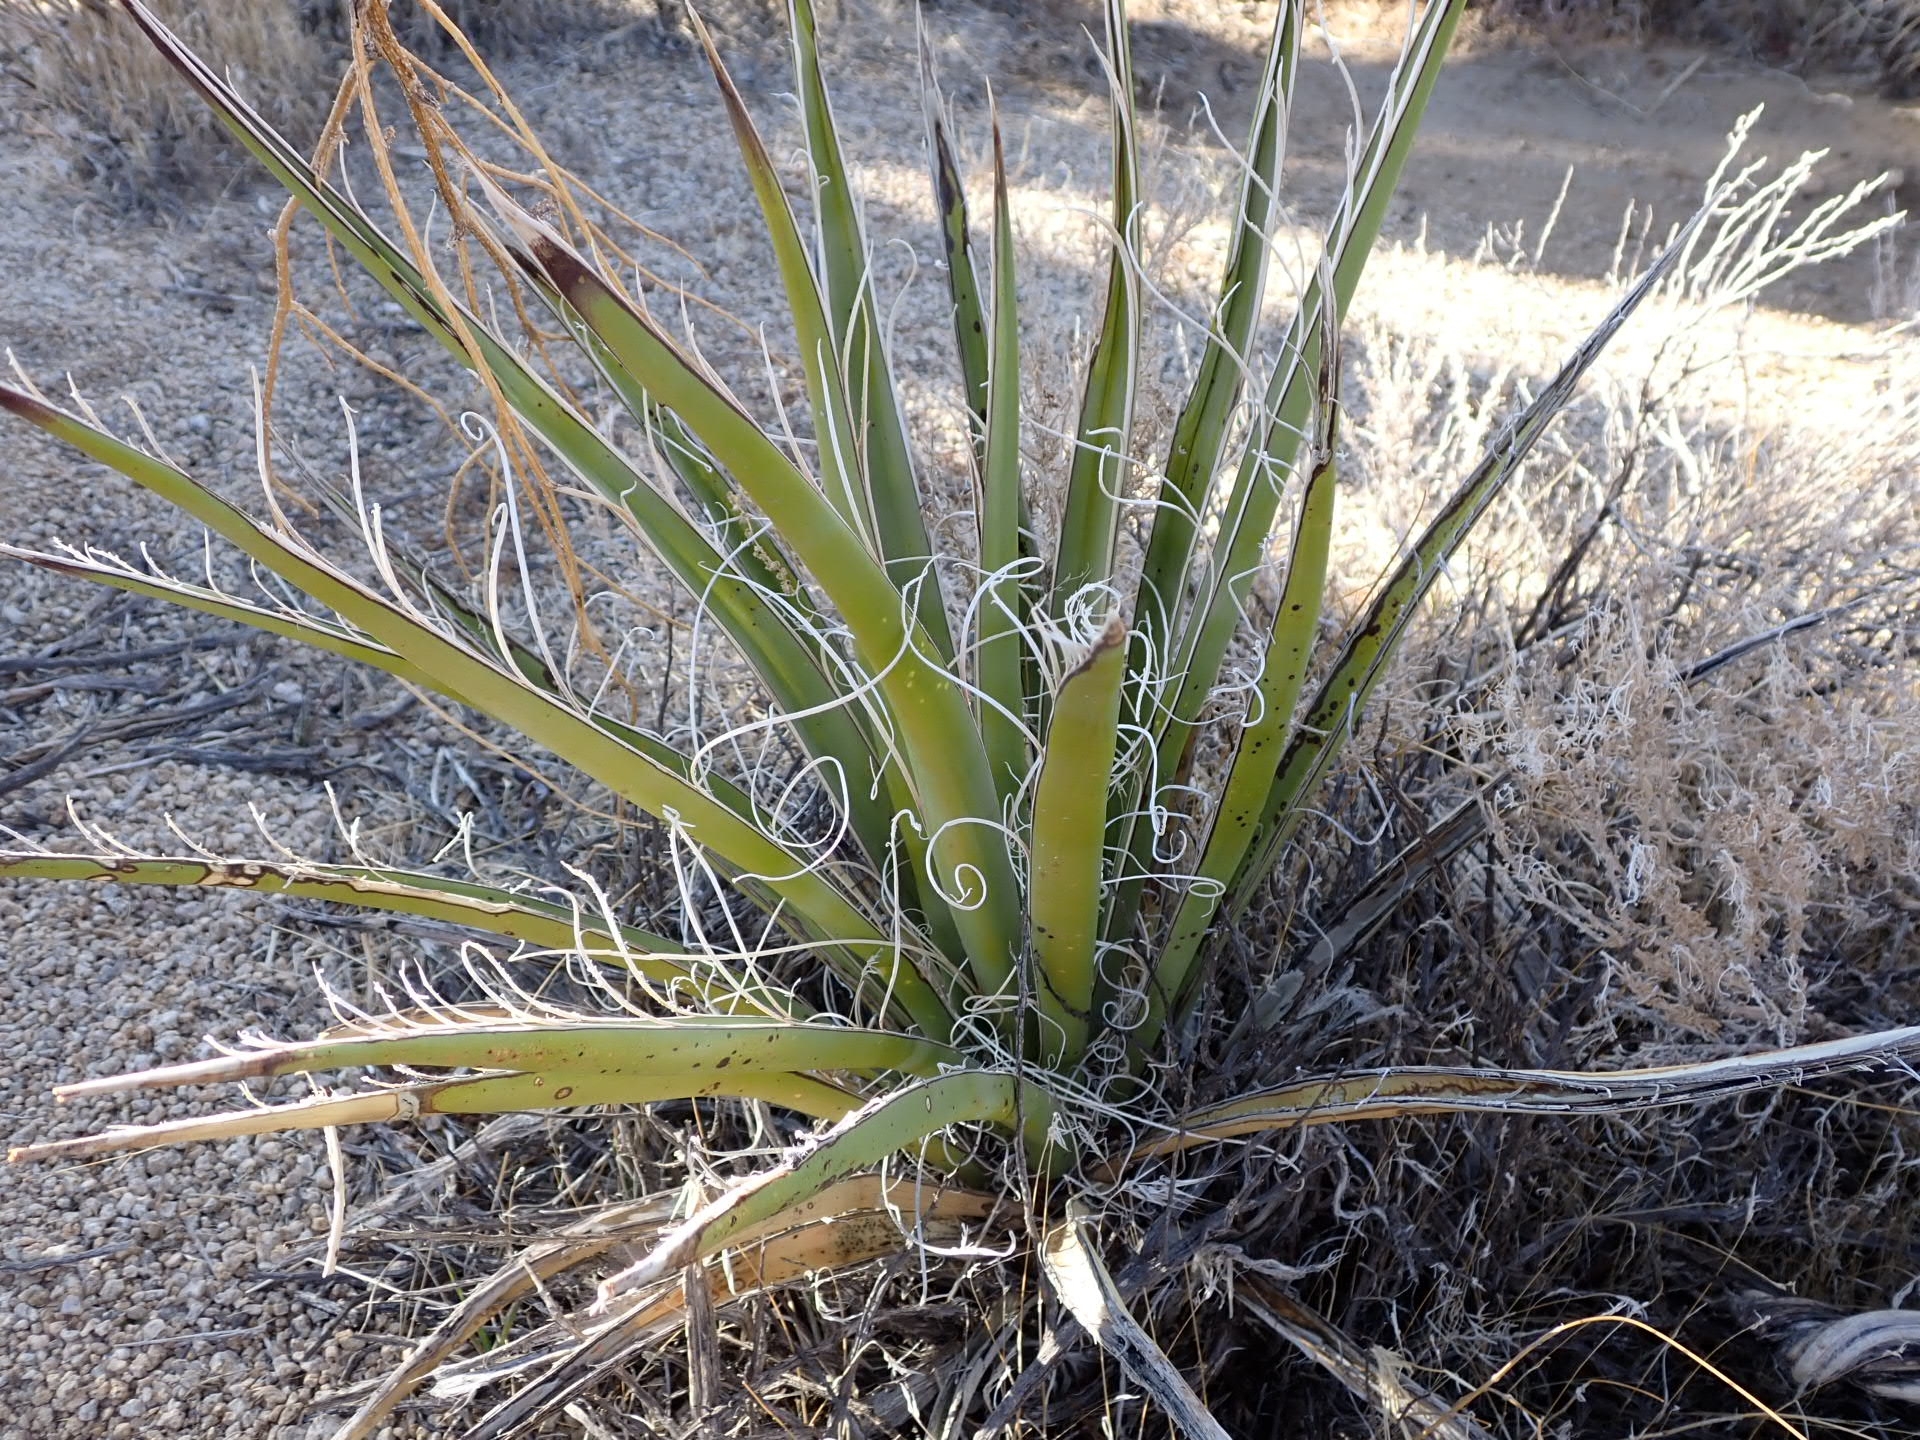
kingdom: Plantae
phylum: Tracheophyta
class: Liliopsida
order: Asparagales
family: Asparagaceae
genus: Yucca
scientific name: Yucca schidigera
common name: Mojave yucca
